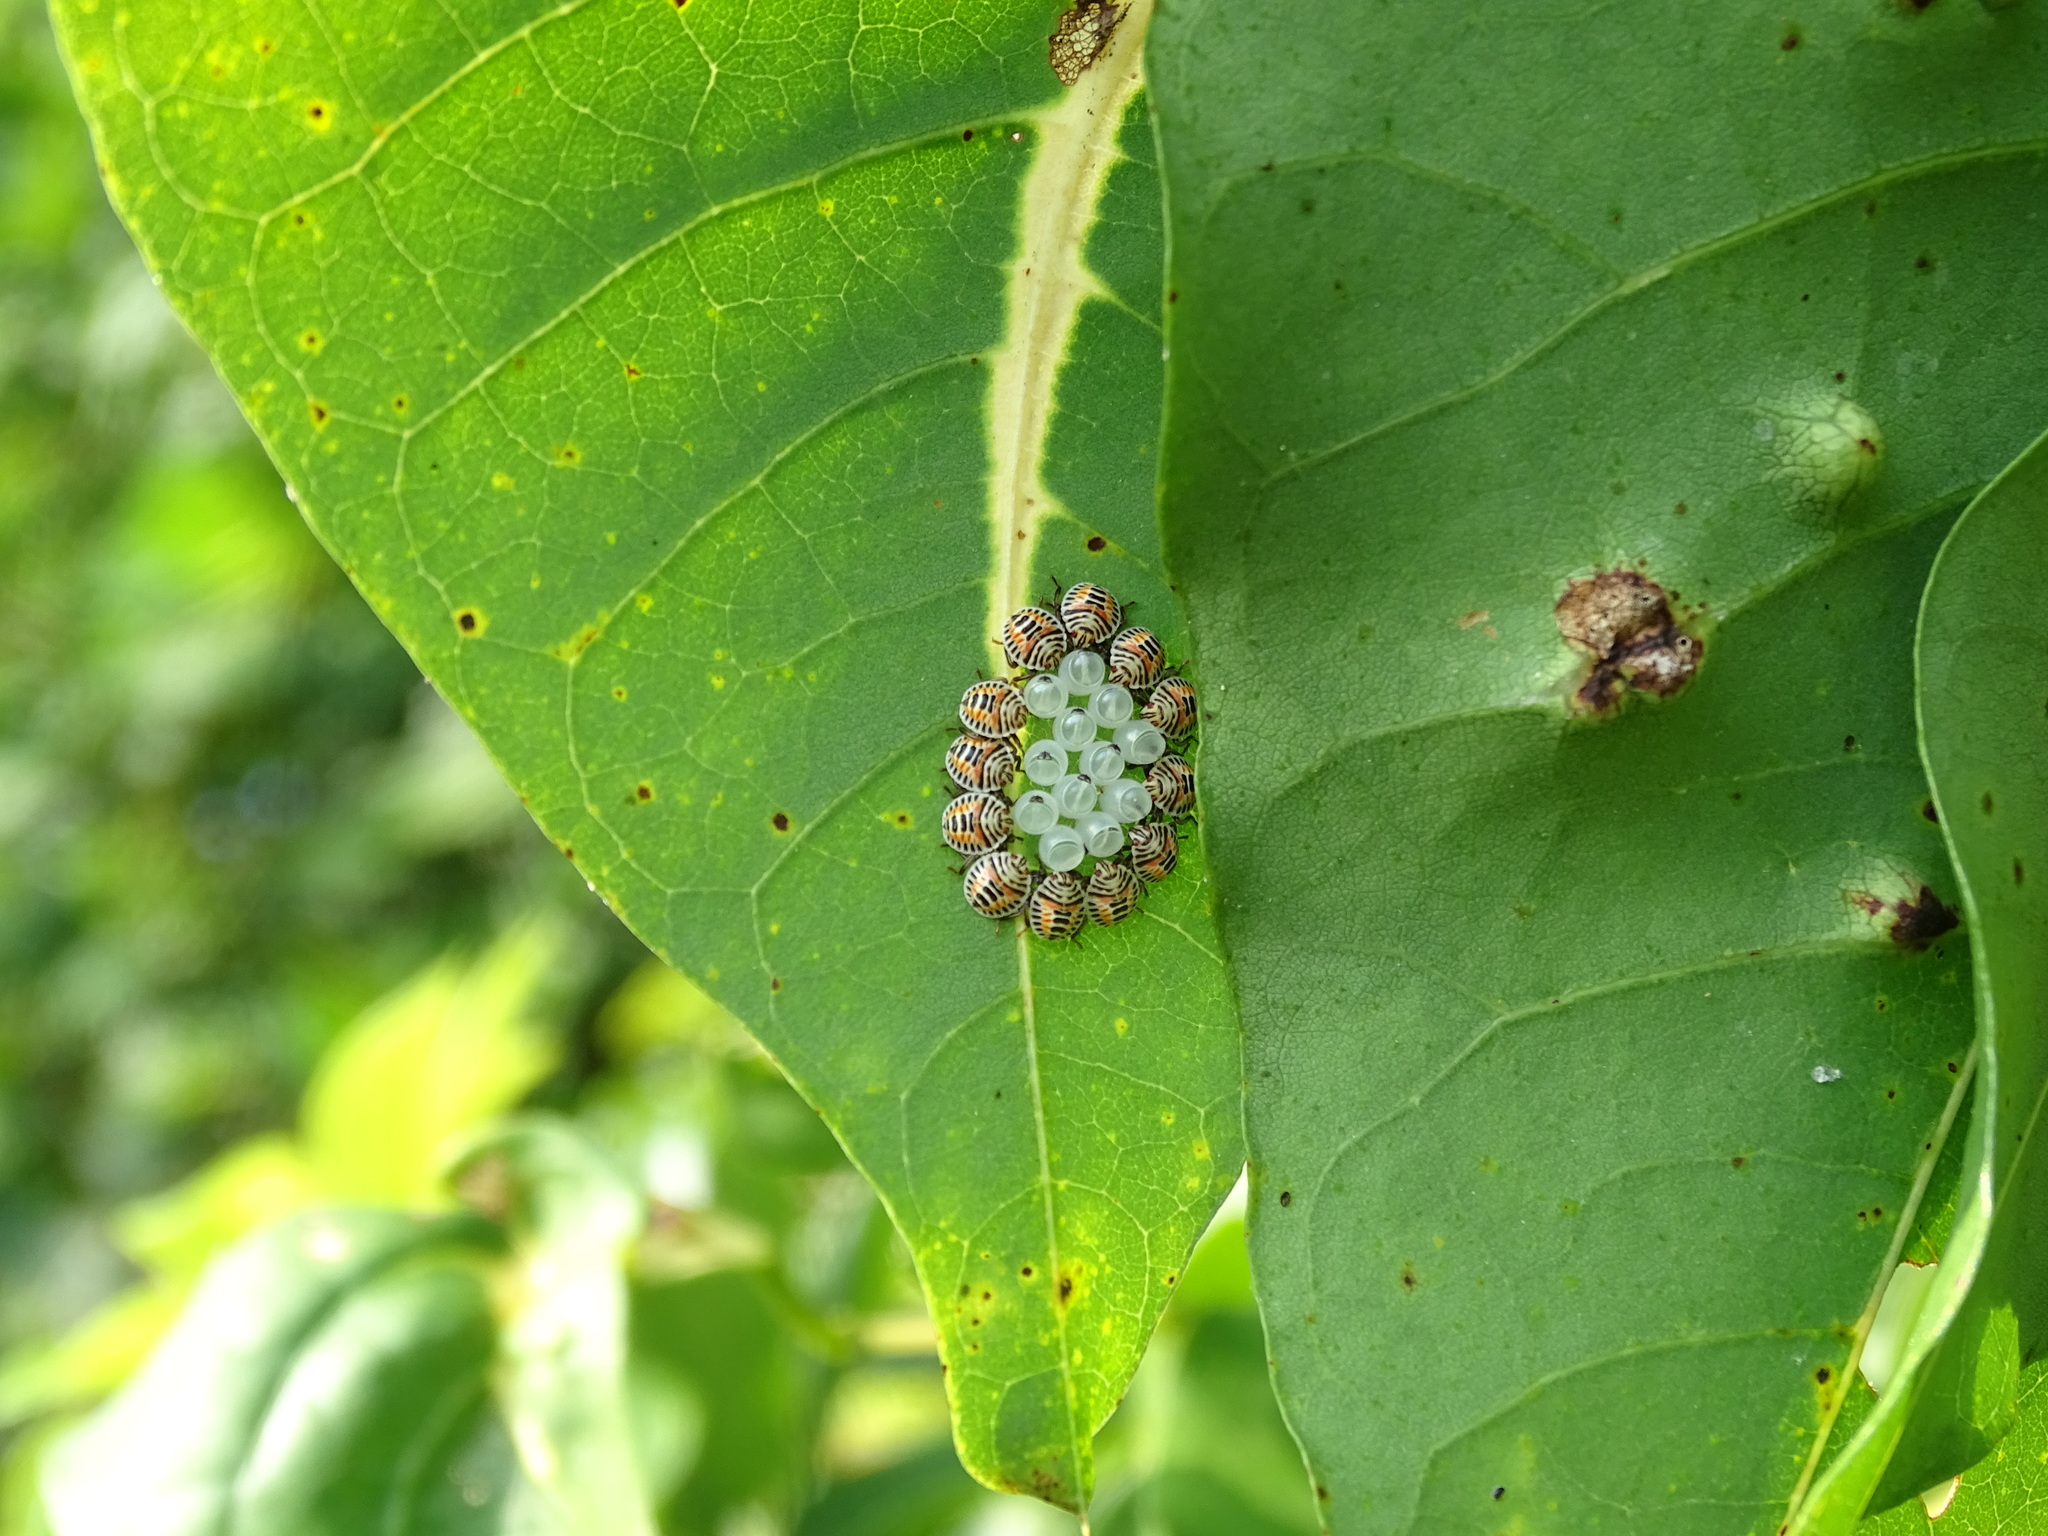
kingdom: Animalia
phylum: Arthropoda
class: Insecta
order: Hemiptera
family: Pentatomidae
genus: Erthesina
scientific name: Erthesina fullo
